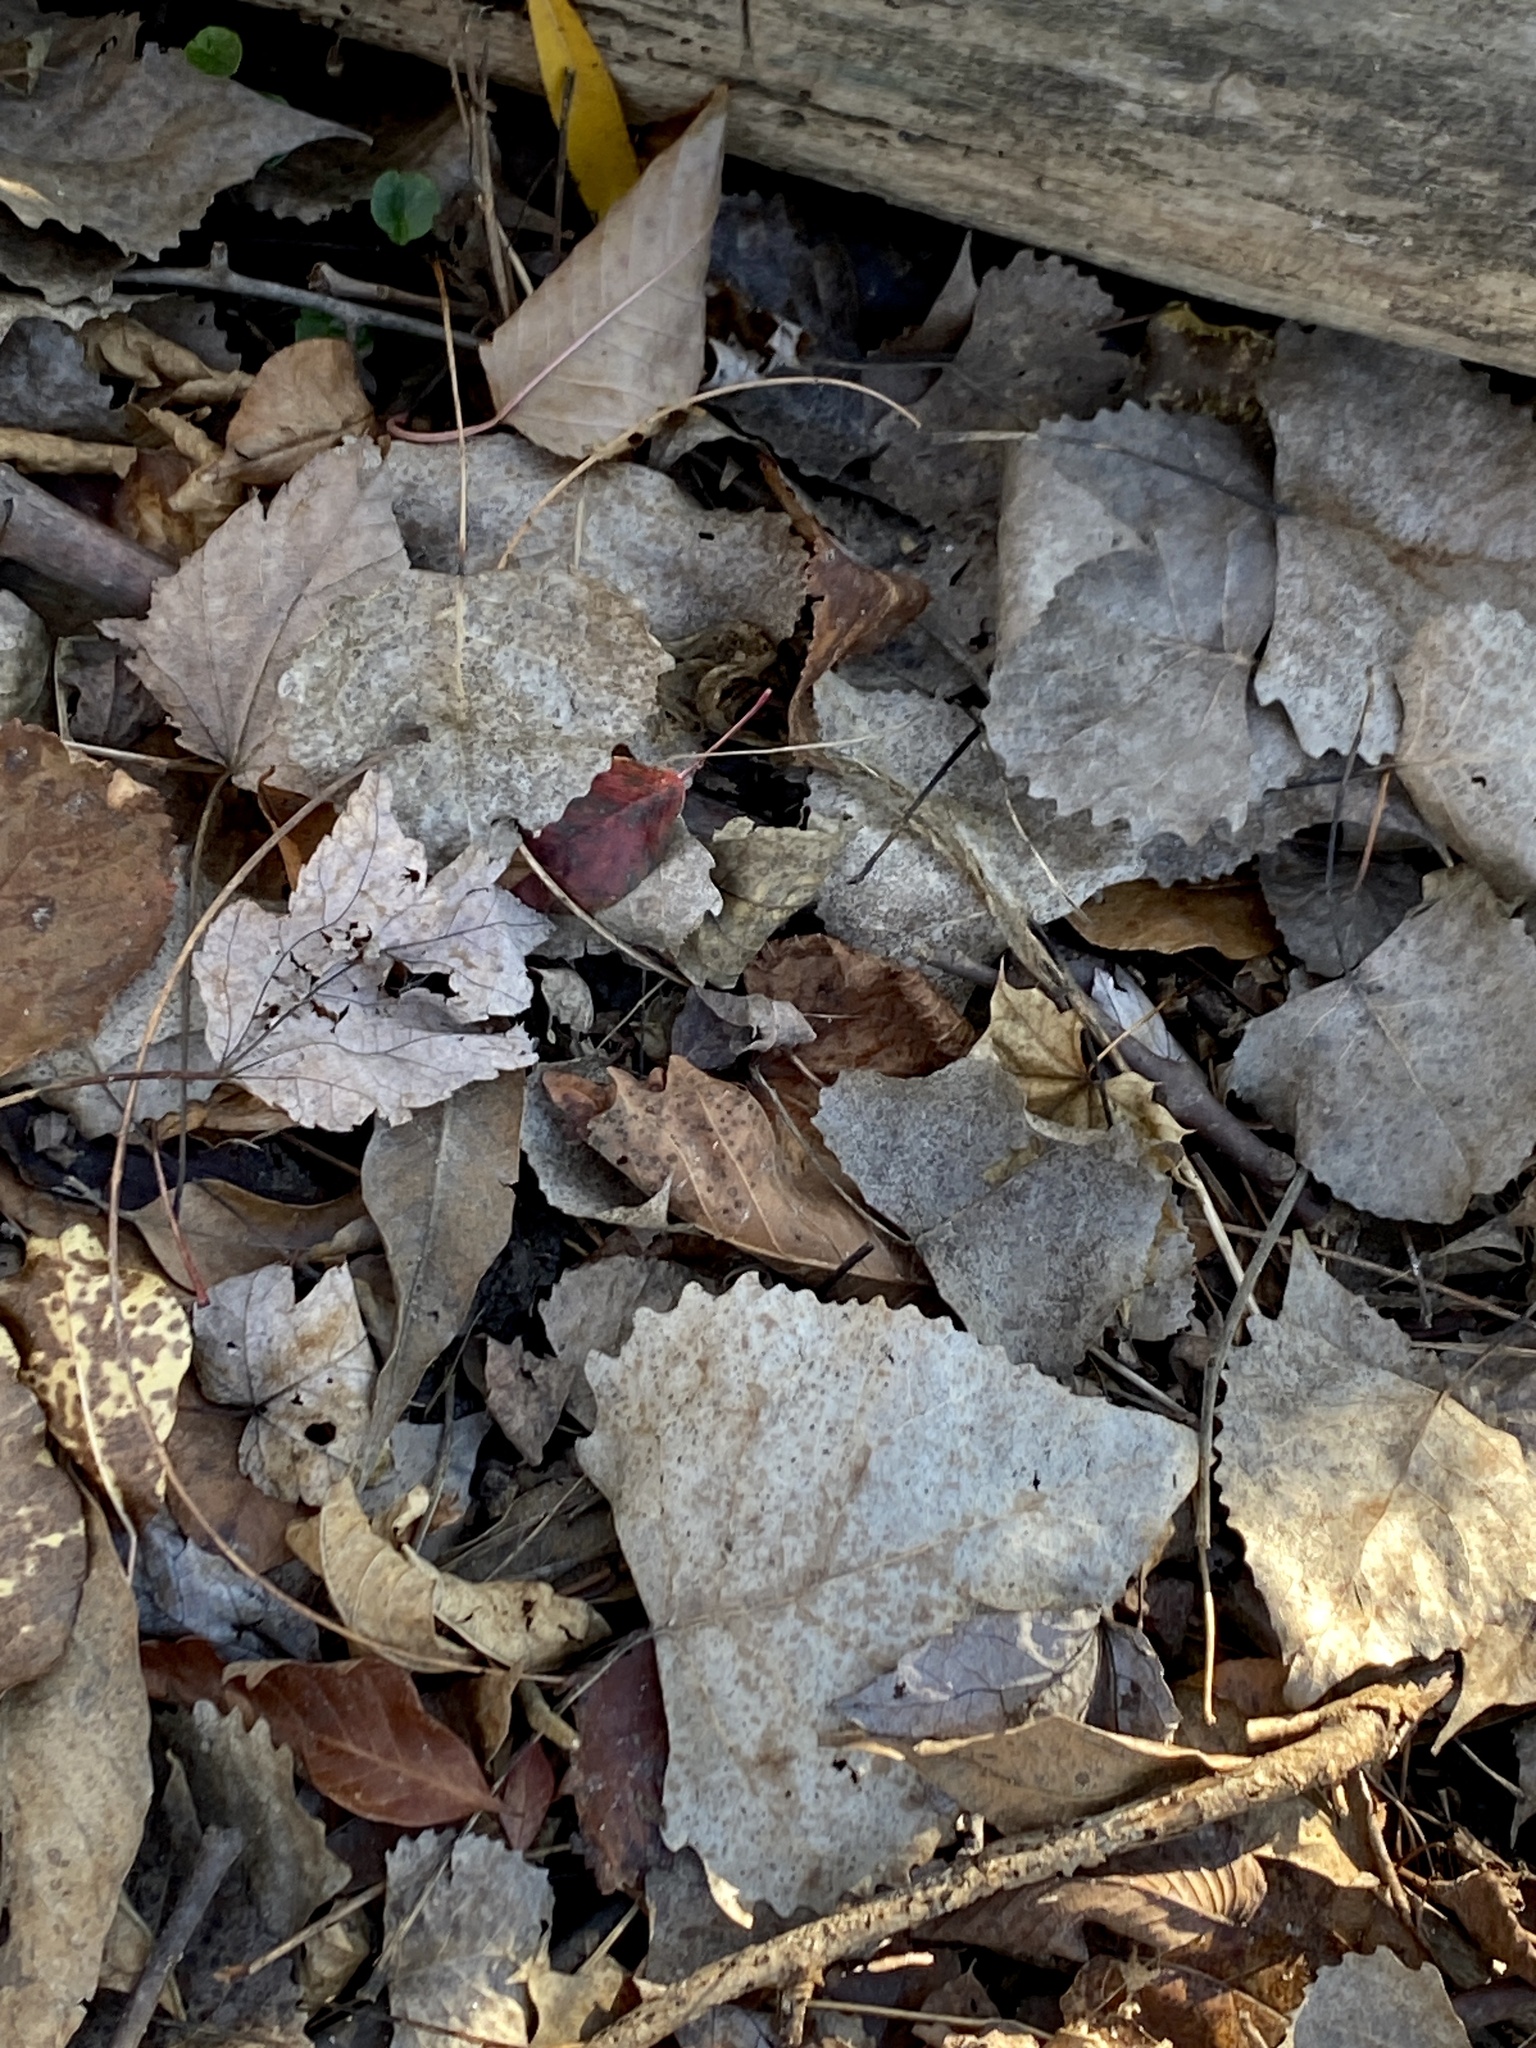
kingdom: Plantae
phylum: Tracheophyta
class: Magnoliopsida
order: Malpighiales
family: Salicaceae
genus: Populus
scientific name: Populus deltoides
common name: Eastern cottonwood
